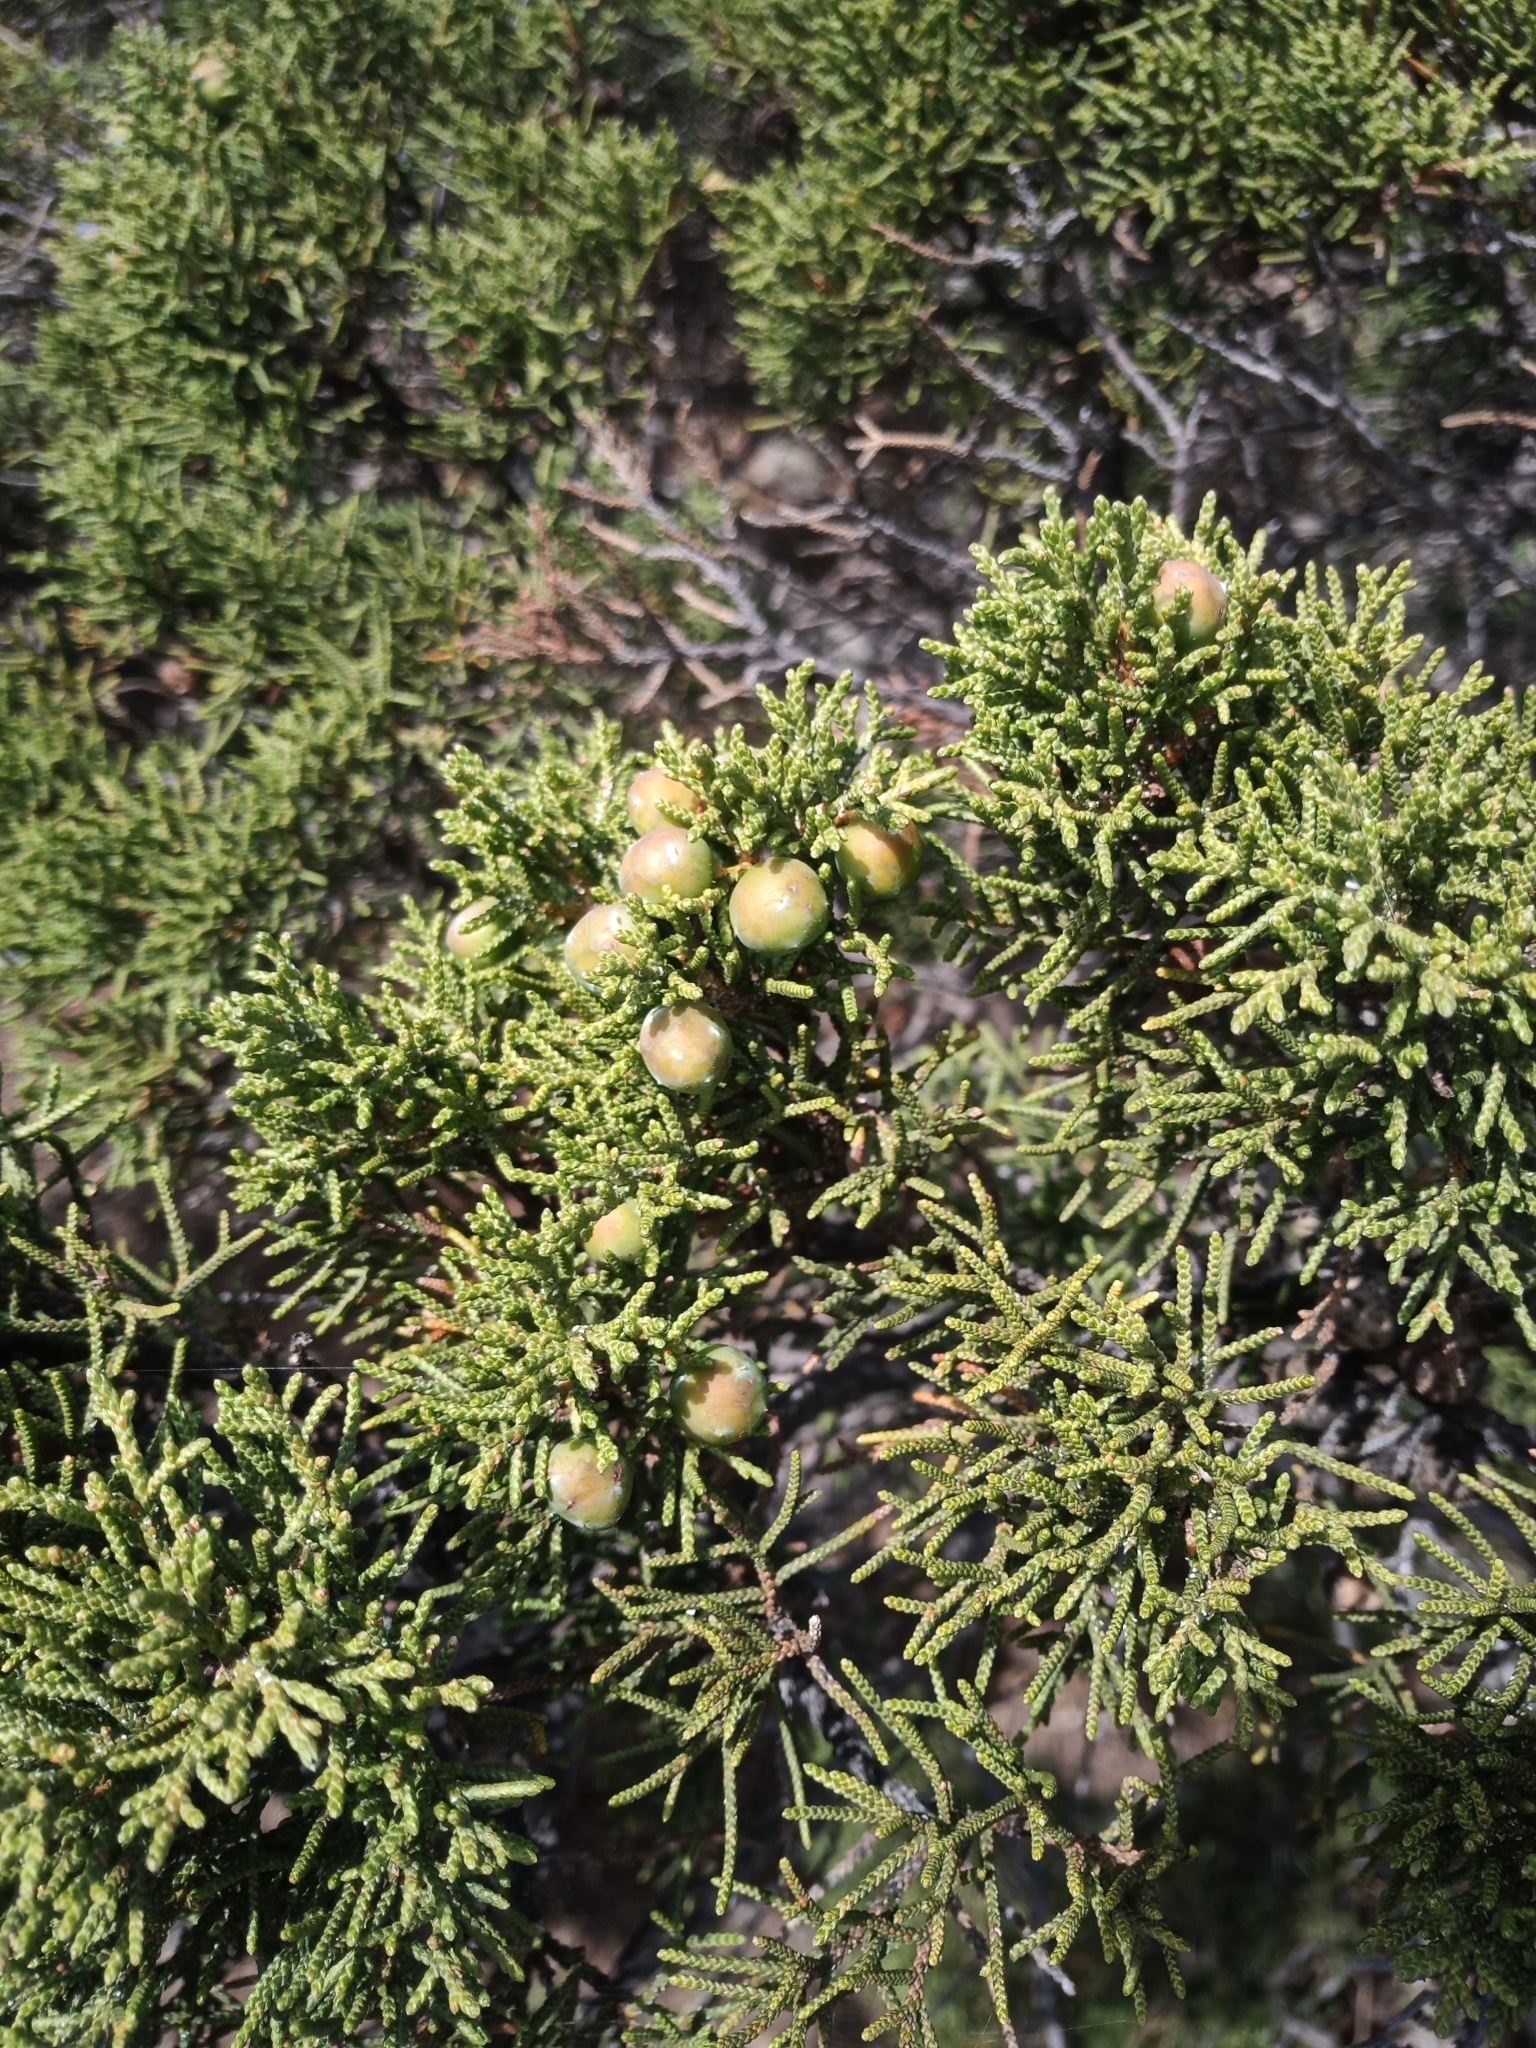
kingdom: Plantae
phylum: Tracheophyta
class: Pinopsida
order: Pinales
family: Cupressaceae
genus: Juniperus
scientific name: Juniperus phoenicea
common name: Phoenician juniper
